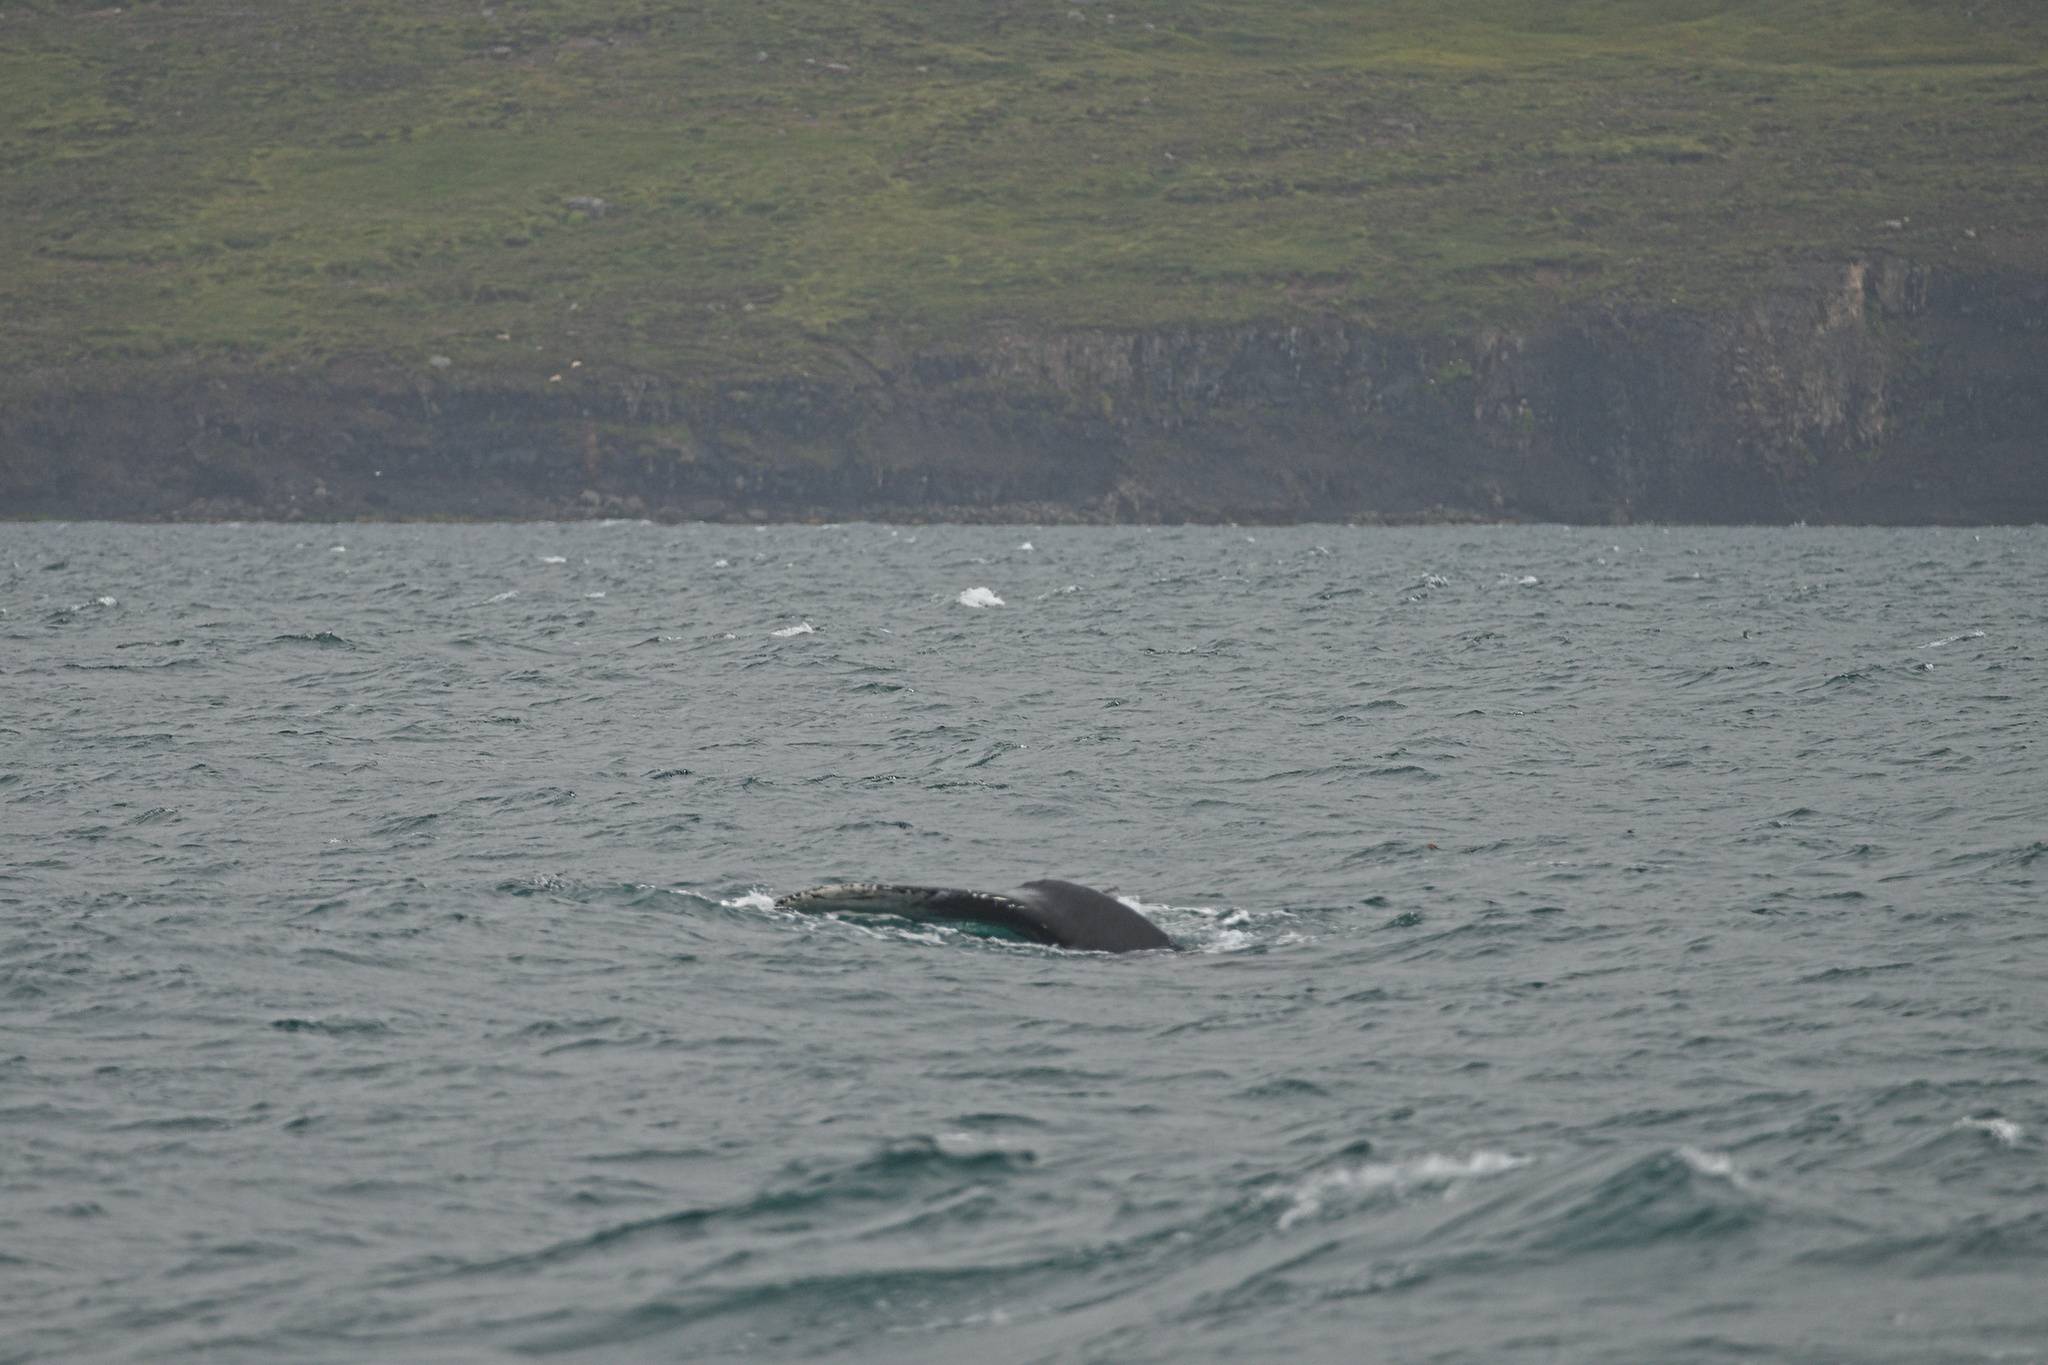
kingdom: Animalia
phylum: Chordata
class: Mammalia
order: Cetacea
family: Balaenopteridae
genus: Megaptera
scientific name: Megaptera novaeangliae
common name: Humpback whale
